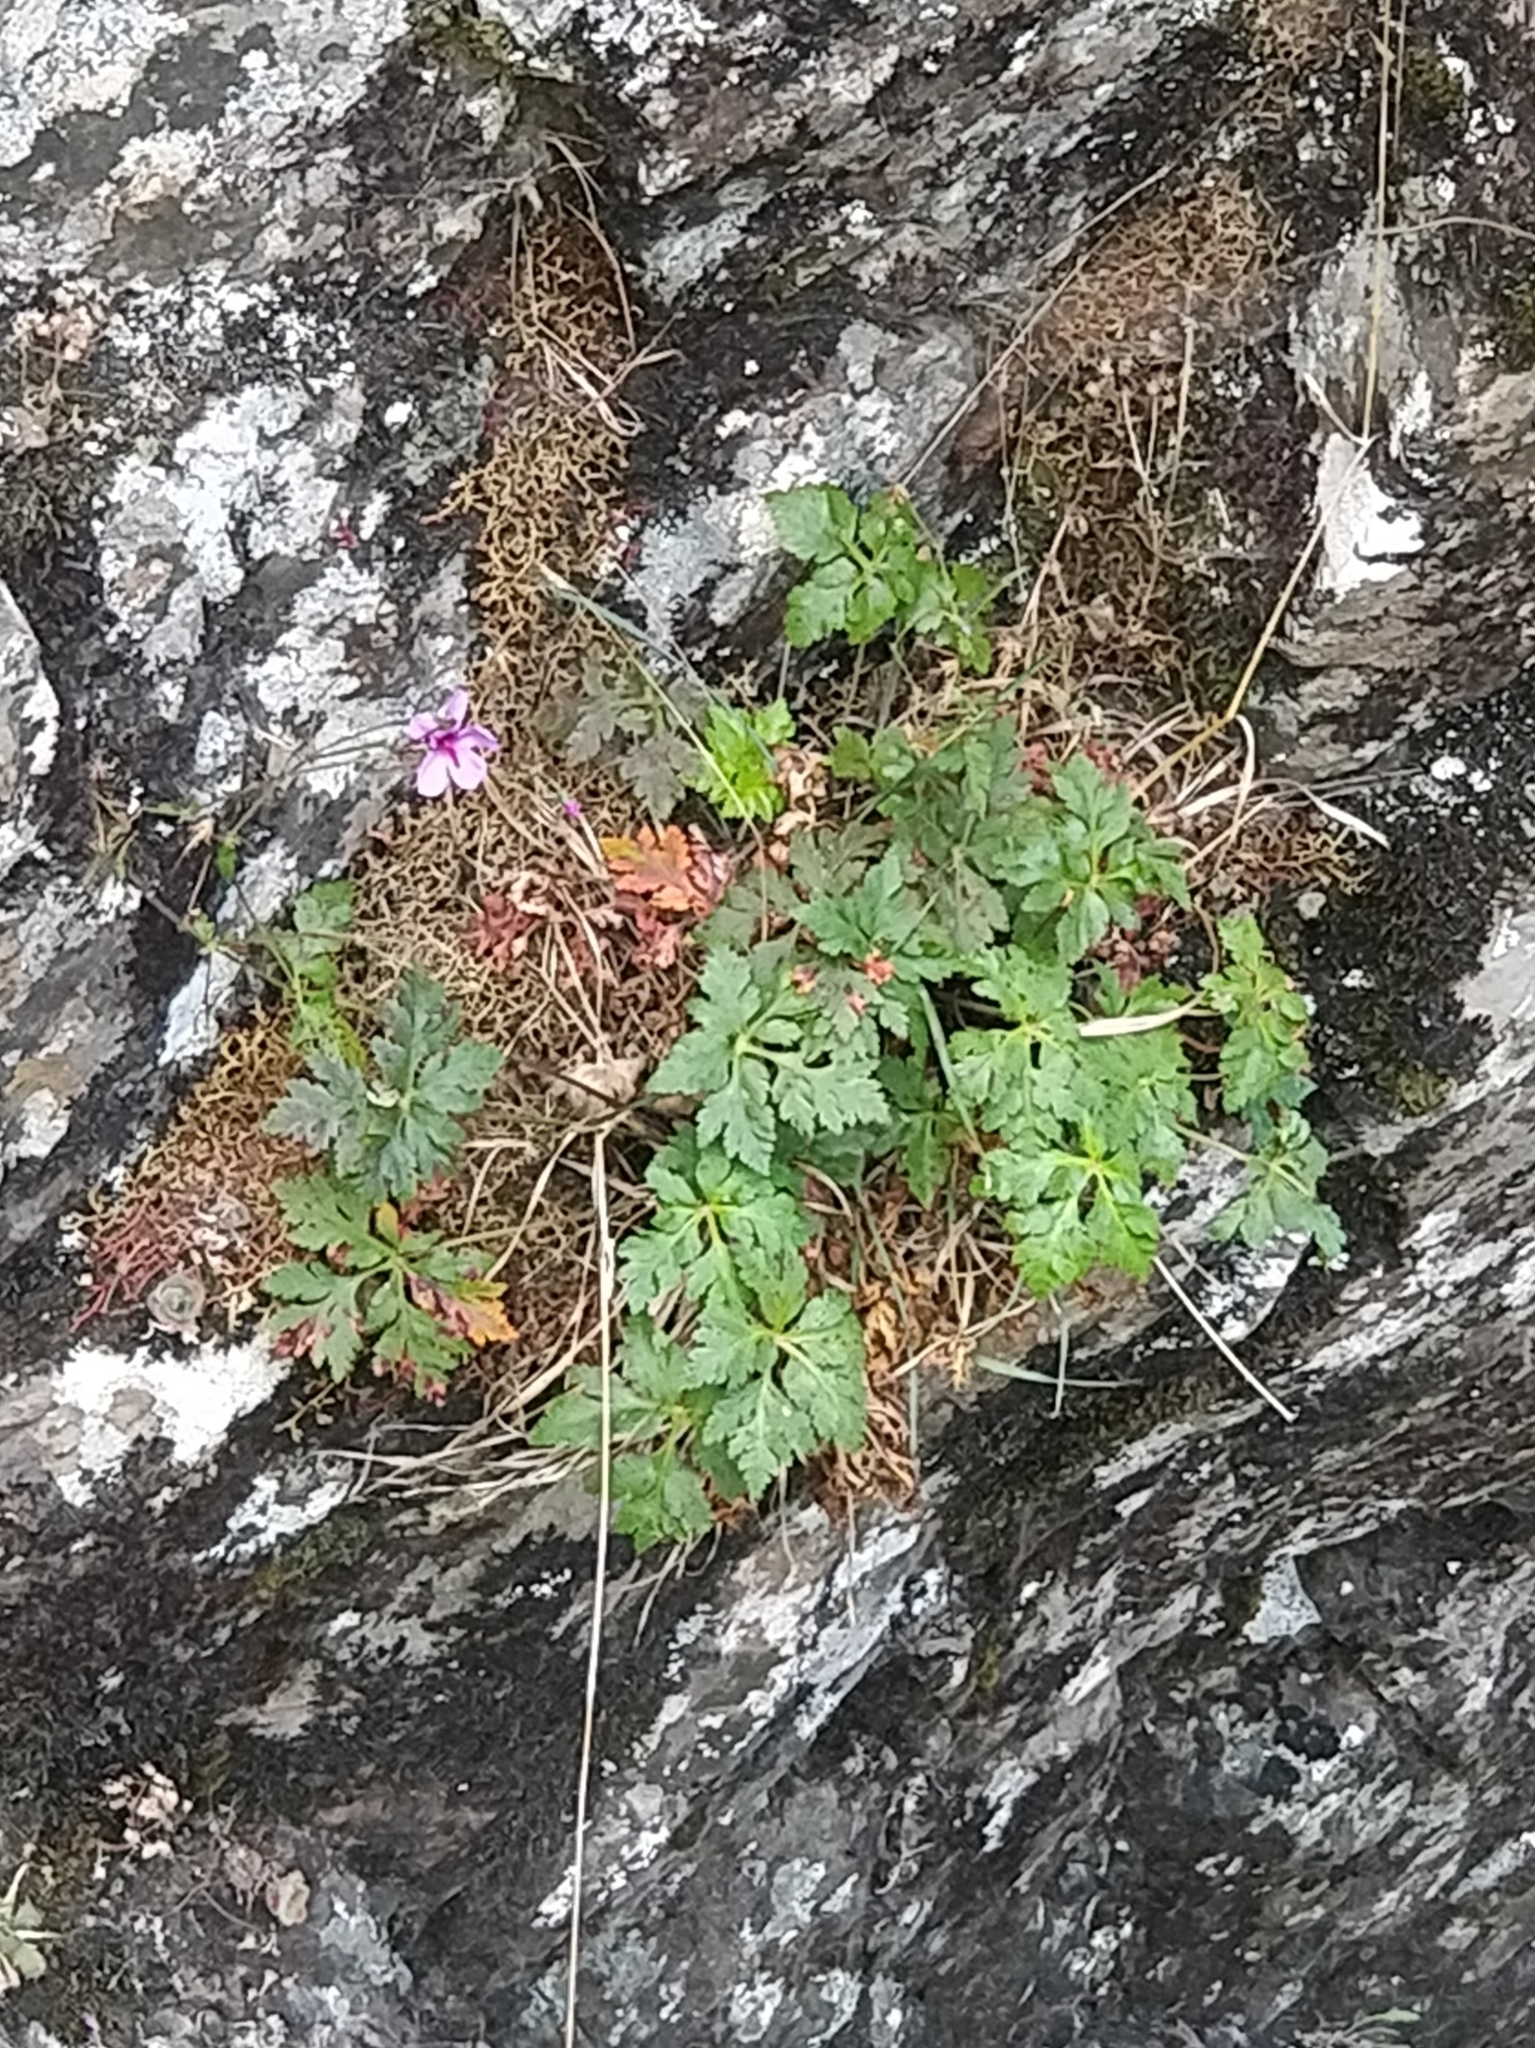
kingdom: Plantae
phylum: Tracheophyta
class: Magnoliopsida
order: Geraniales
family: Geraniaceae
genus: Geranium
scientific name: Geranium palmatum
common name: Canary island geranium
